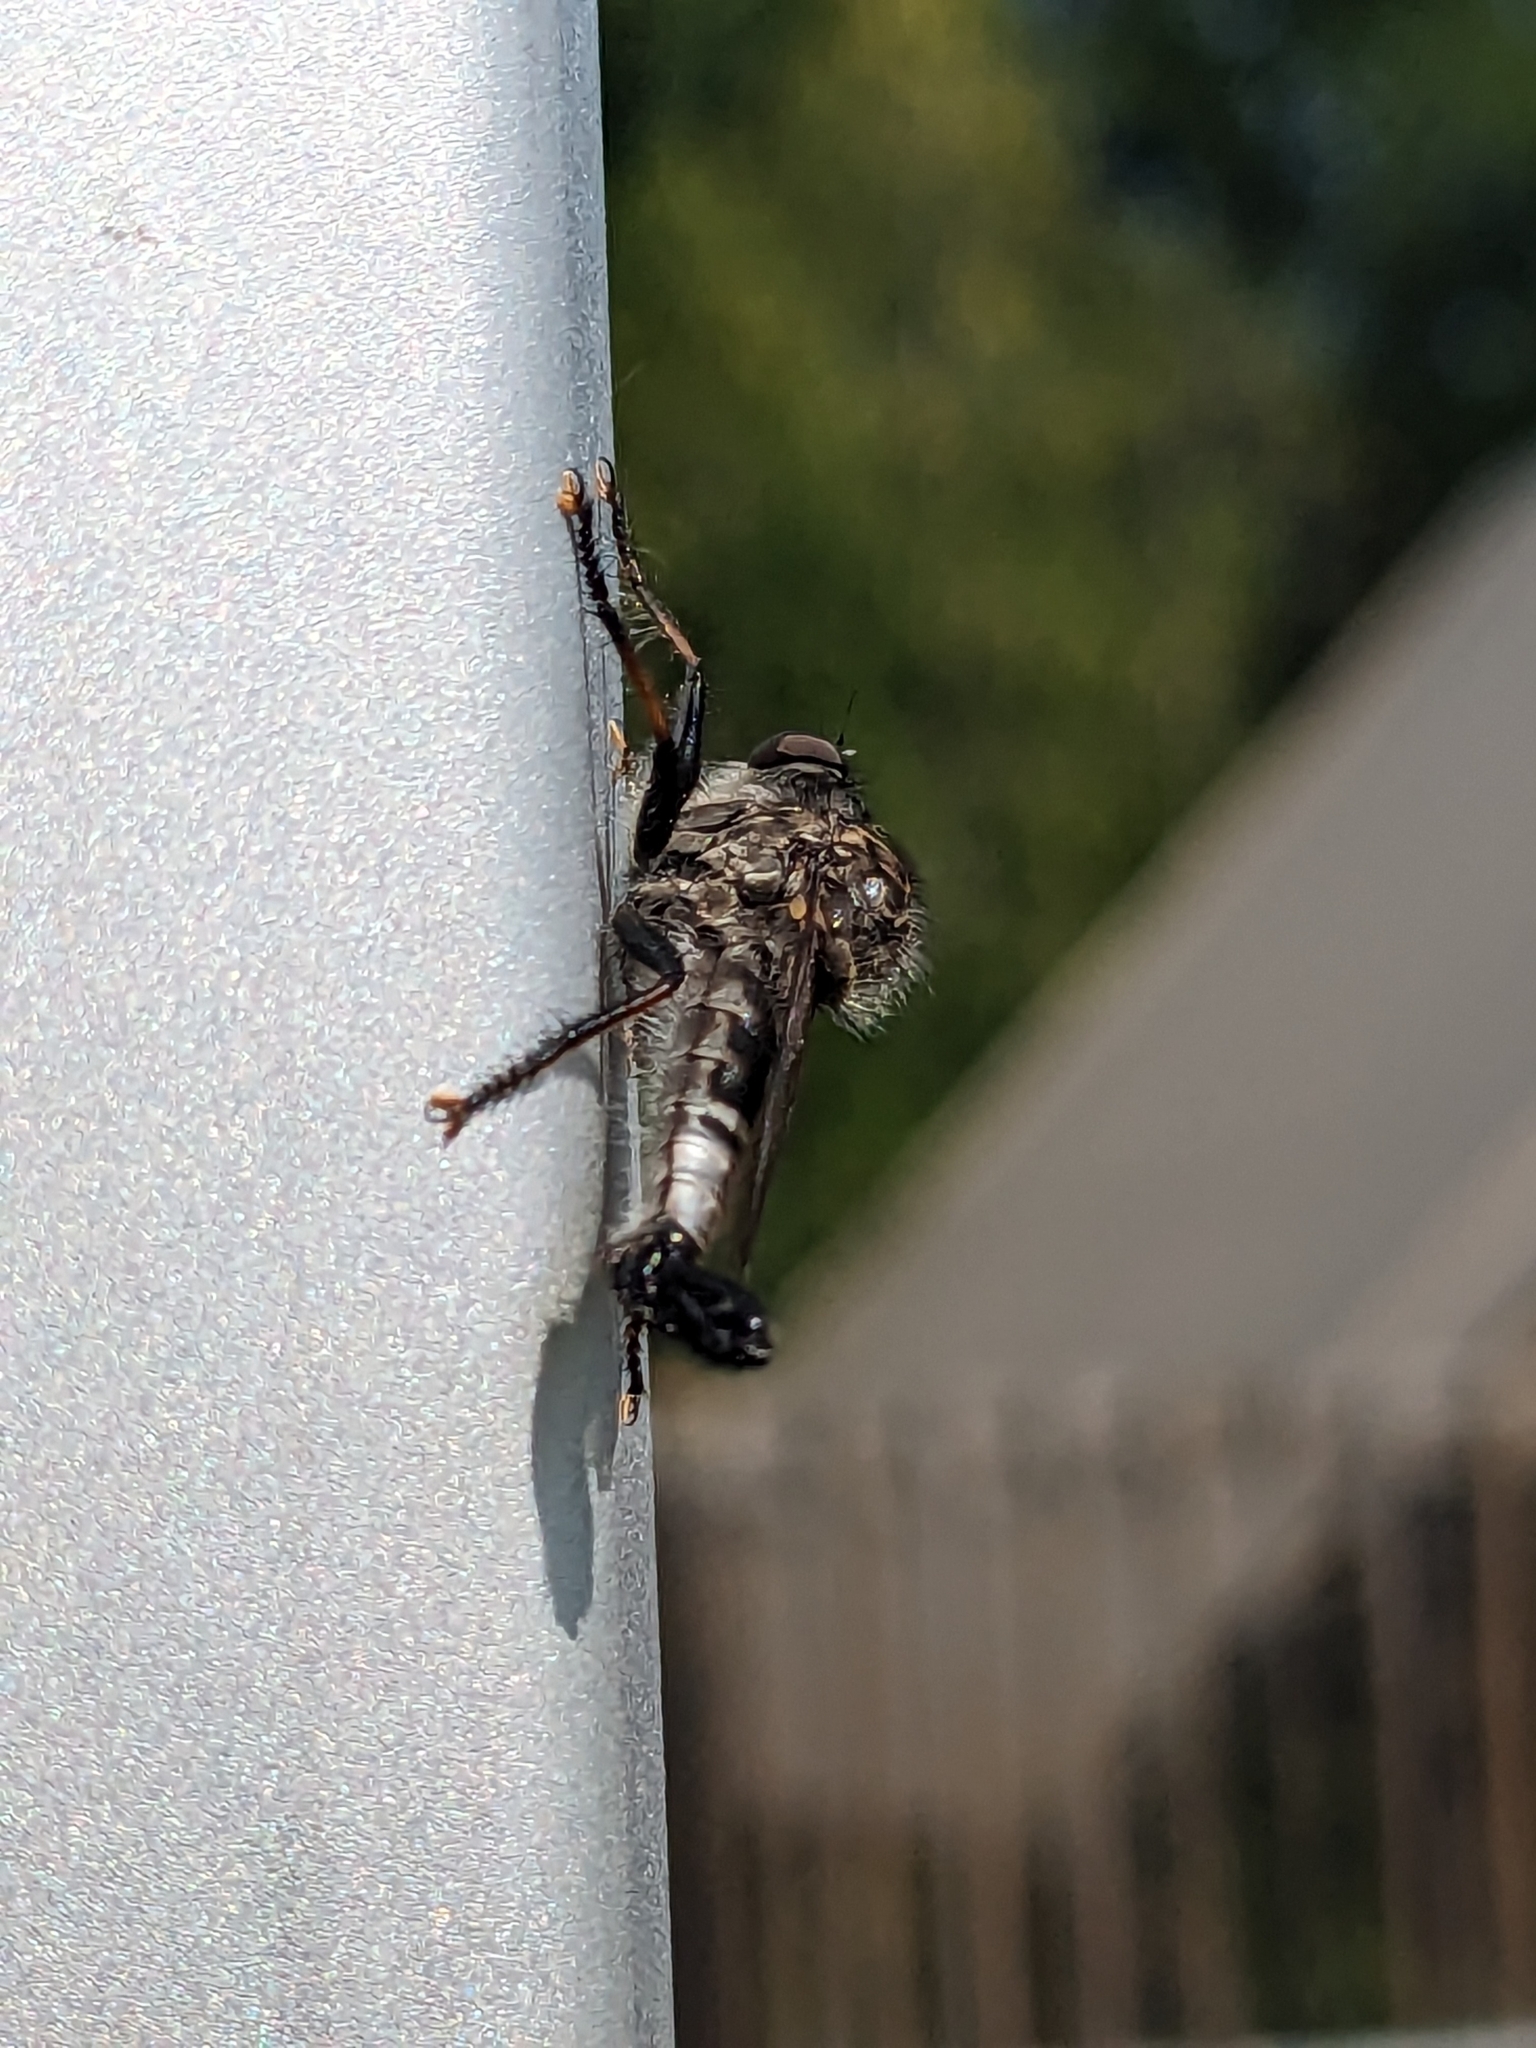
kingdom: Animalia
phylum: Arthropoda
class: Insecta
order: Diptera
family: Asilidae
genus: Efferia
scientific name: Efferia aestuans
